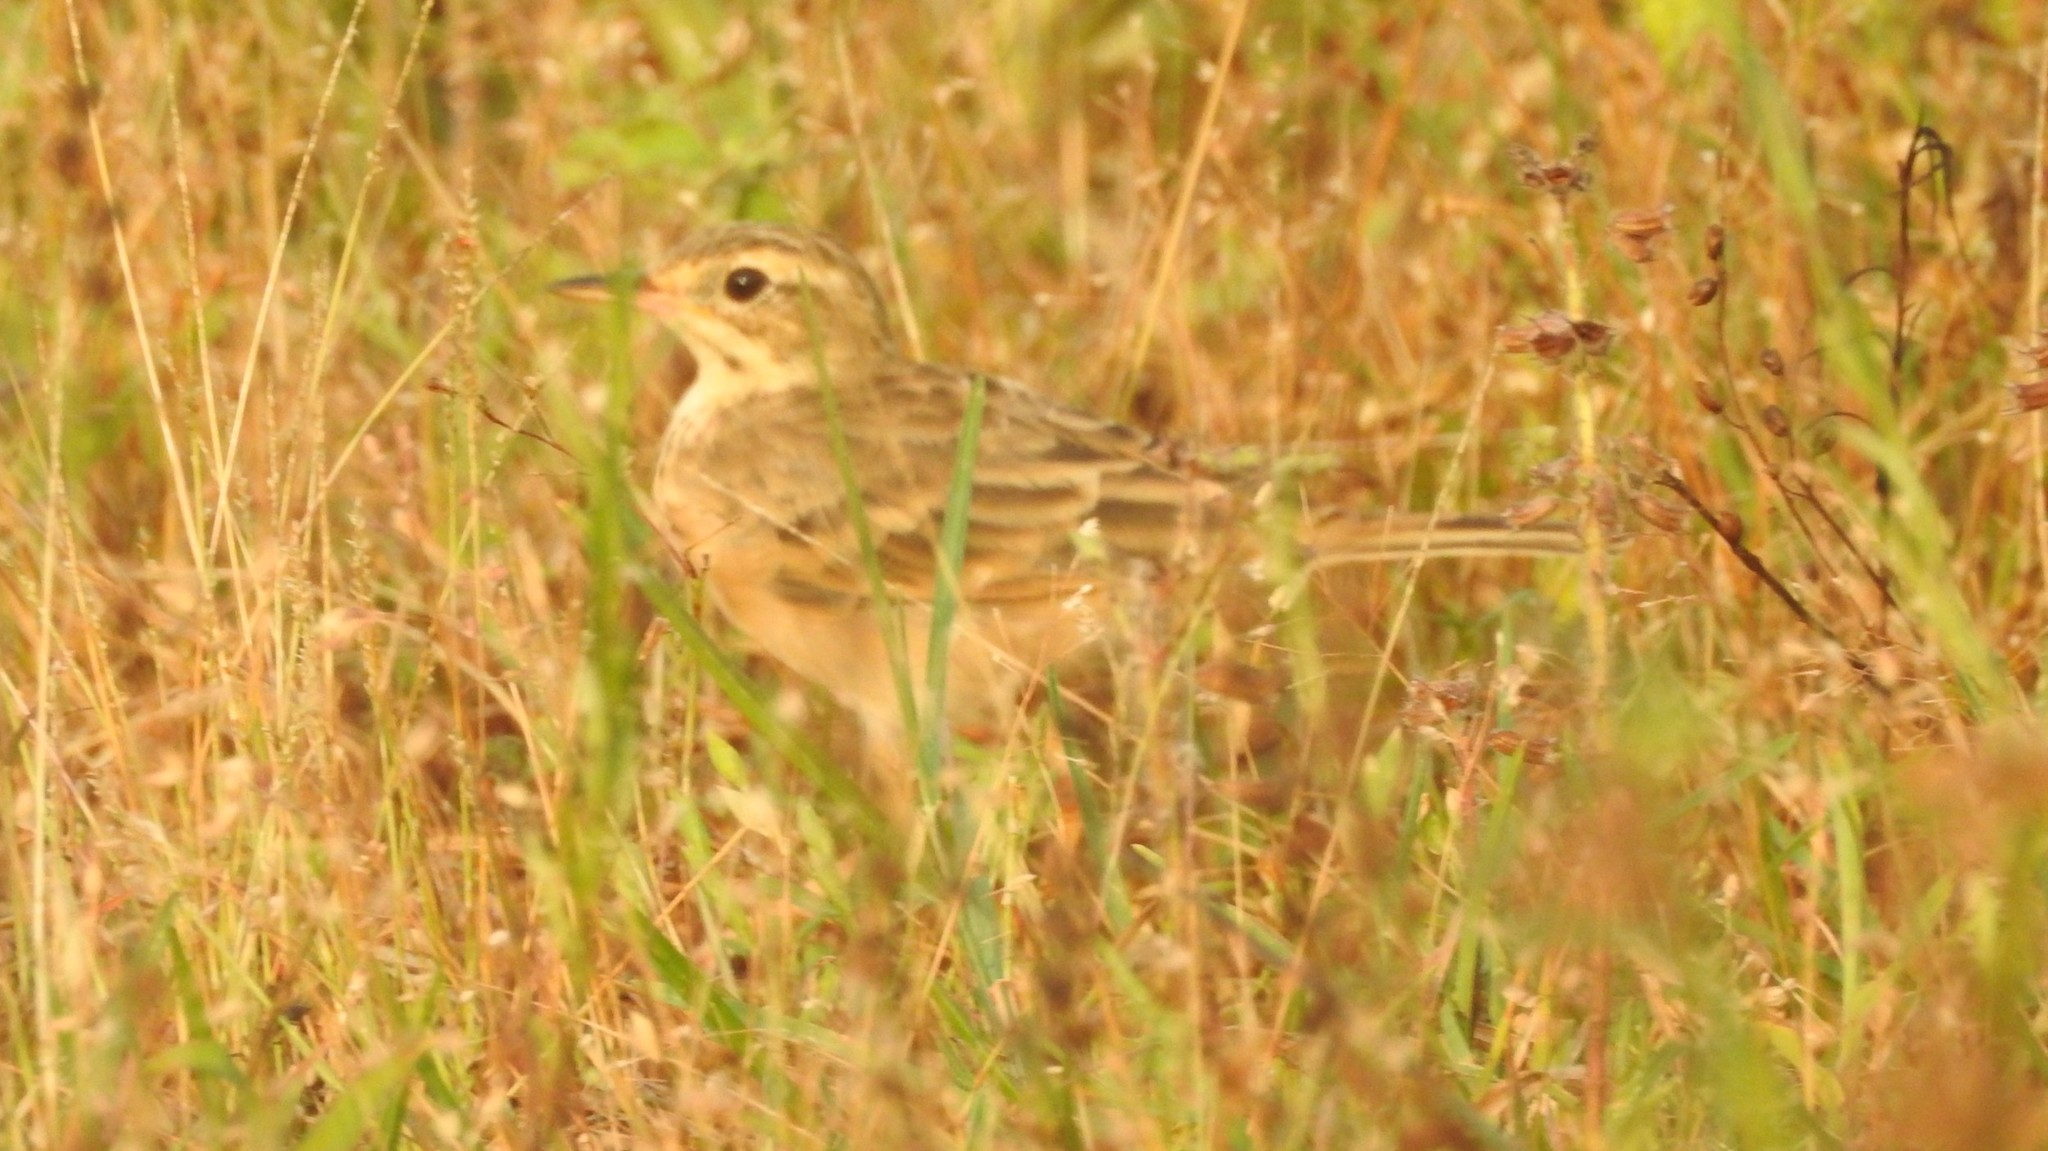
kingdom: Animalia
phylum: Chordata
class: Aves
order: Passeriformes
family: Motacillidae
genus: Anthus
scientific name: Anthus rufulus
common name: Paddyfield pipit
